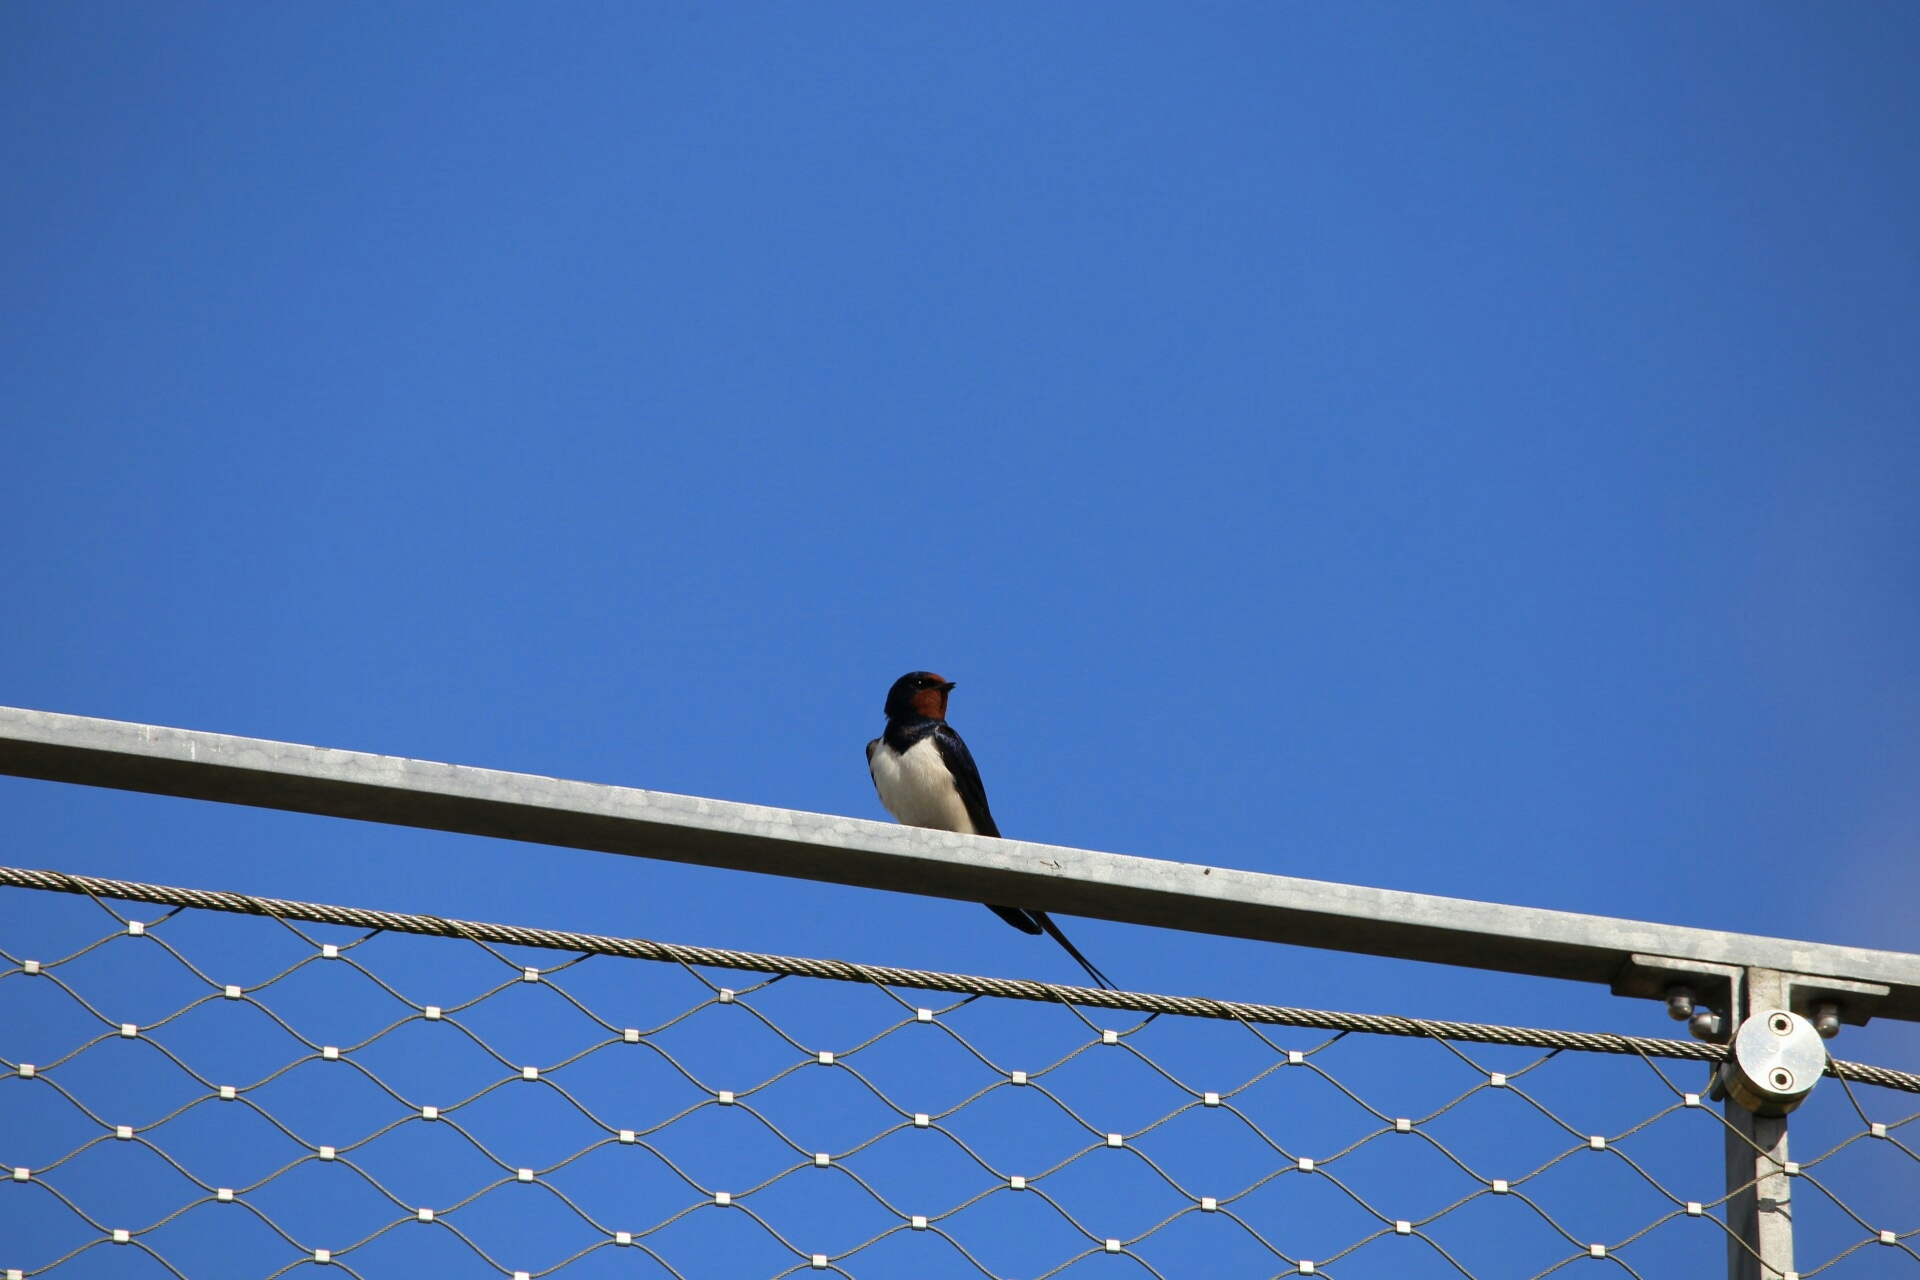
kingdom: Animalia
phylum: Chordata
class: Aves
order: Passeriformes
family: Hirundinidae
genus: Hirundo
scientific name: Hirundo rustica
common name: Barn swallow
